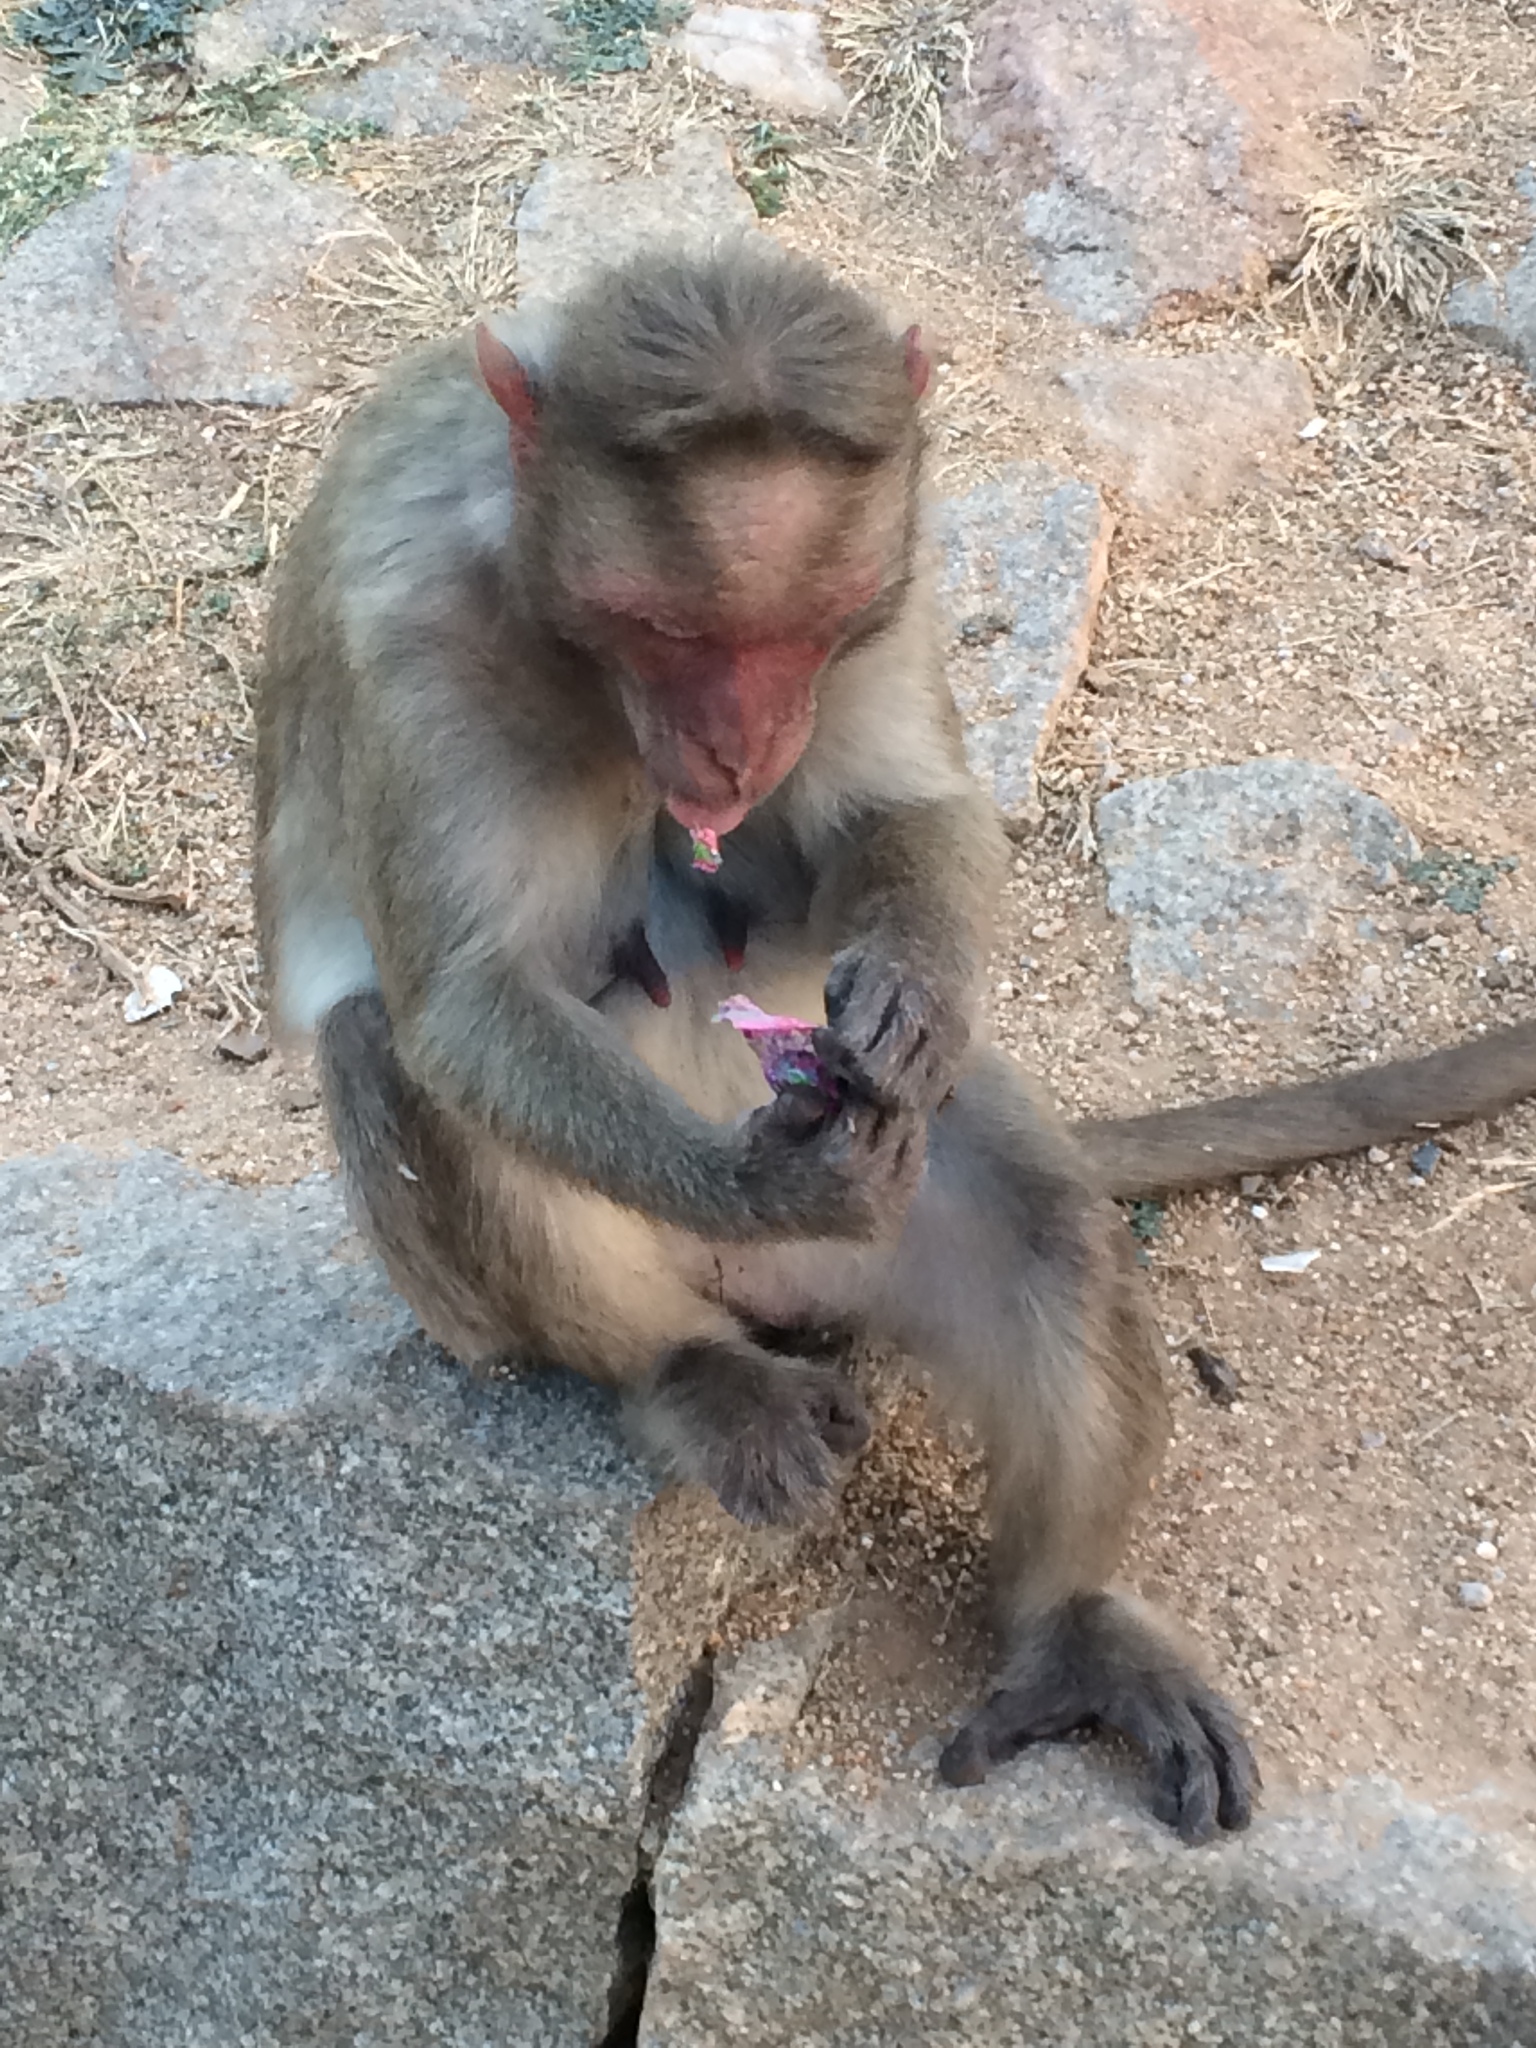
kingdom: Animalia
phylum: Chordata
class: Mammalia
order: Primates
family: Cercopithecidae
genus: Macaca
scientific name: Macaca radiata
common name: Bonnet macaque
